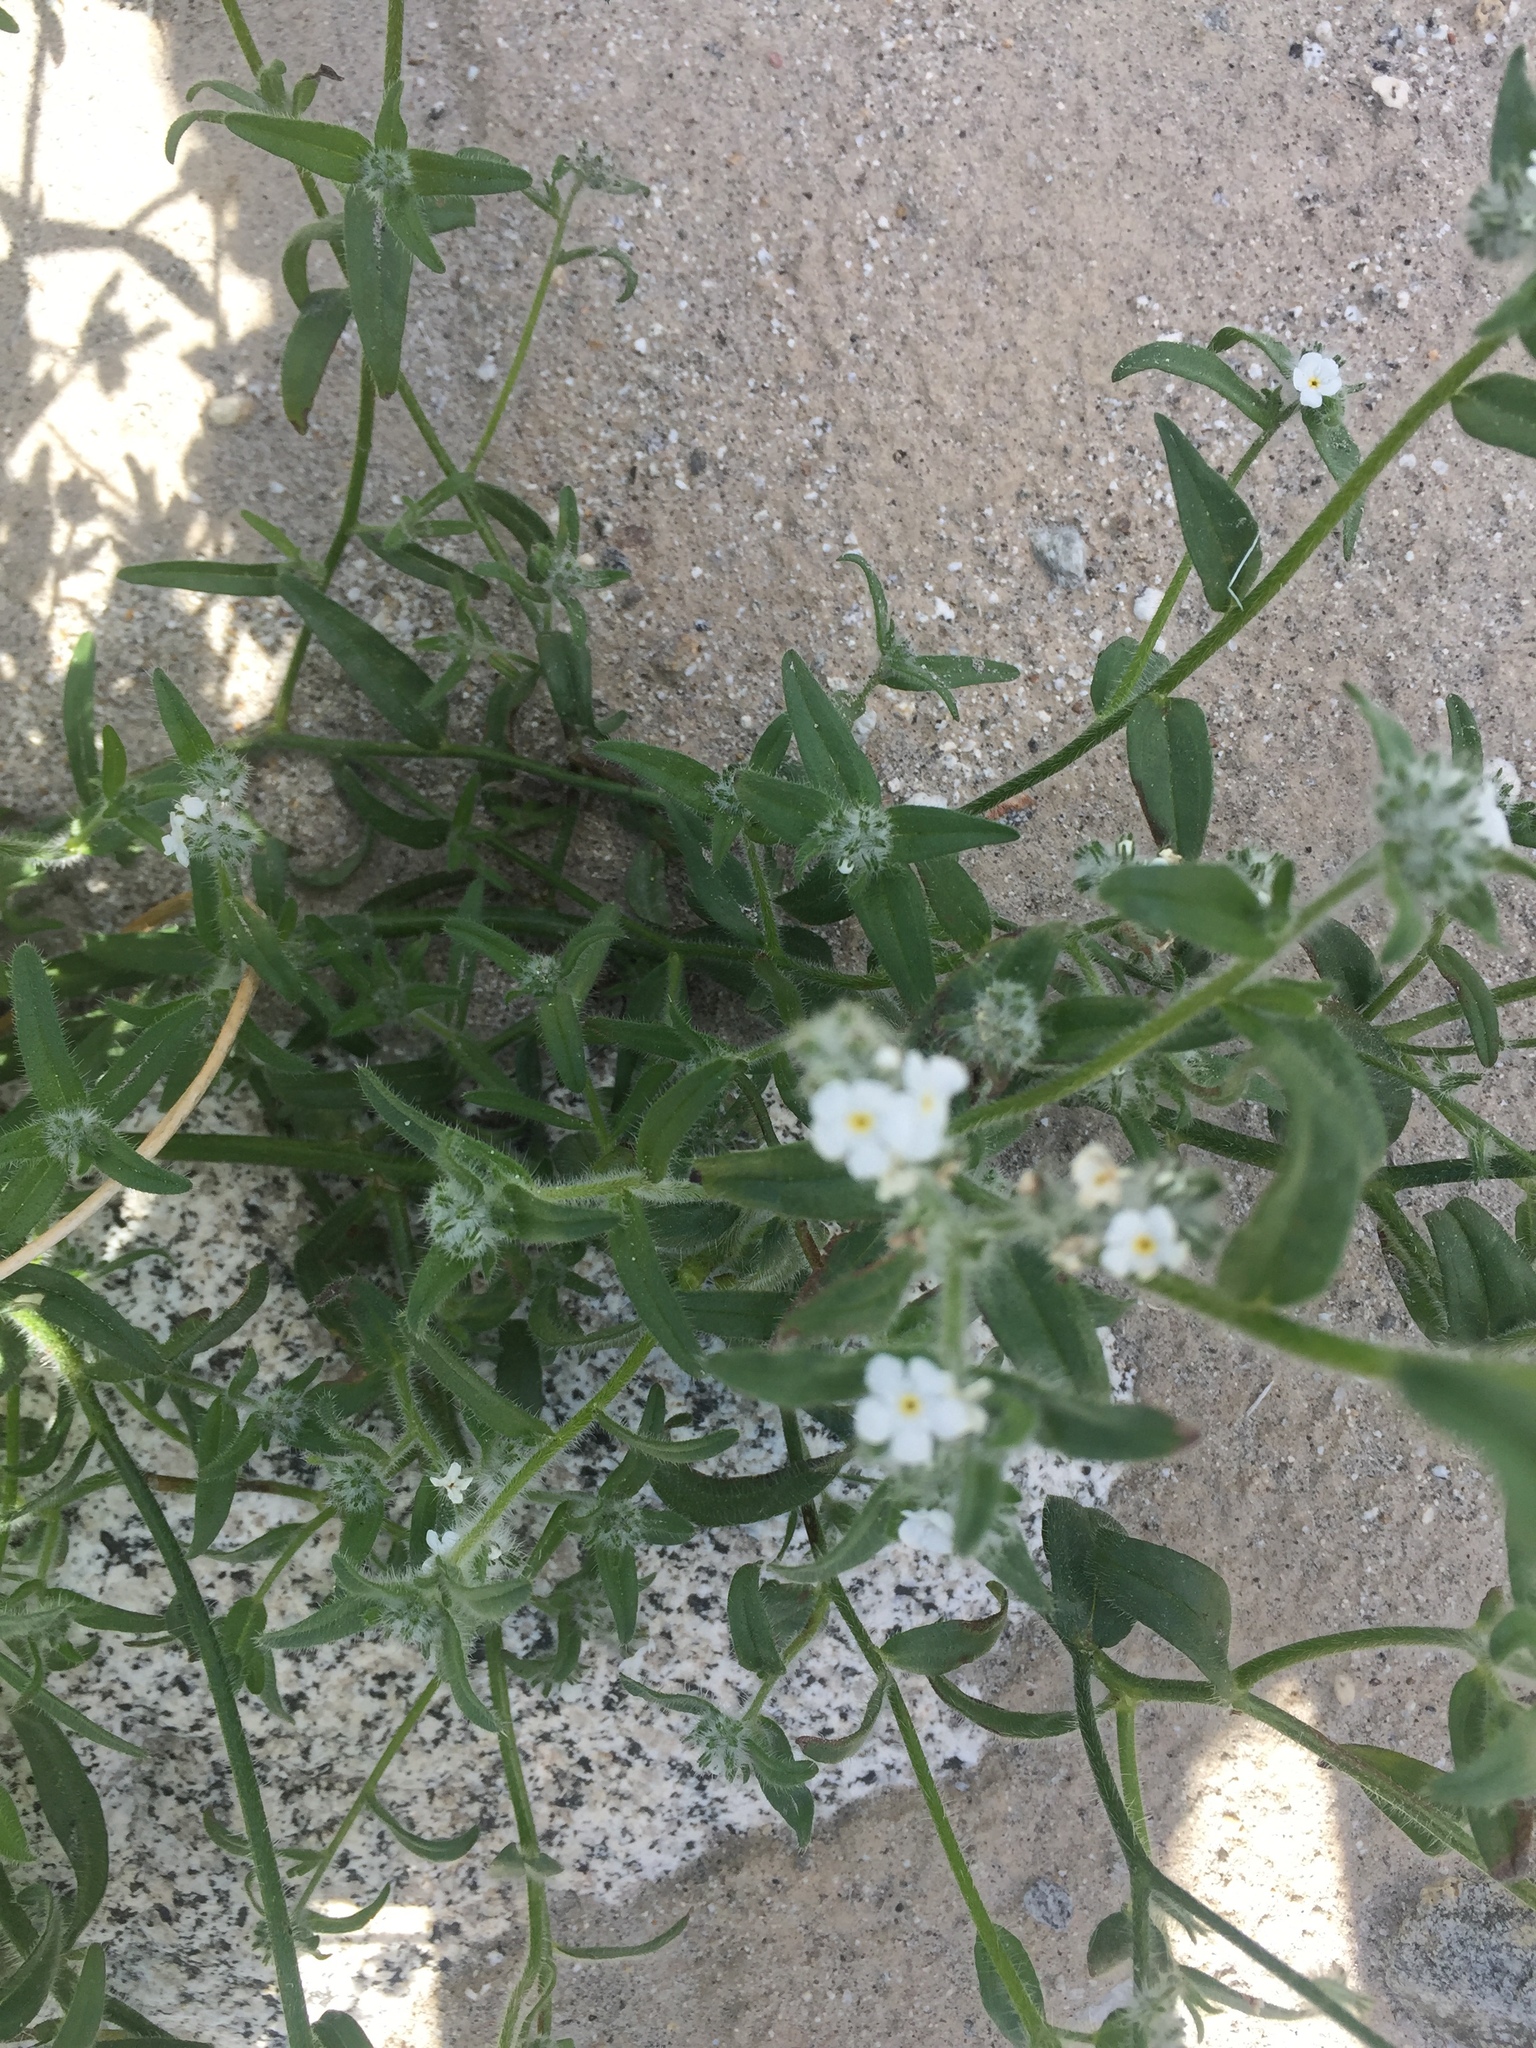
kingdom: Plantae
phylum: Tracheophyta
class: Magnoliopsida
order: Boraginales
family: Boraginaceae
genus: Cryptantha
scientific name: Cryptantha intermedia
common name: Clearwater cryptantha
